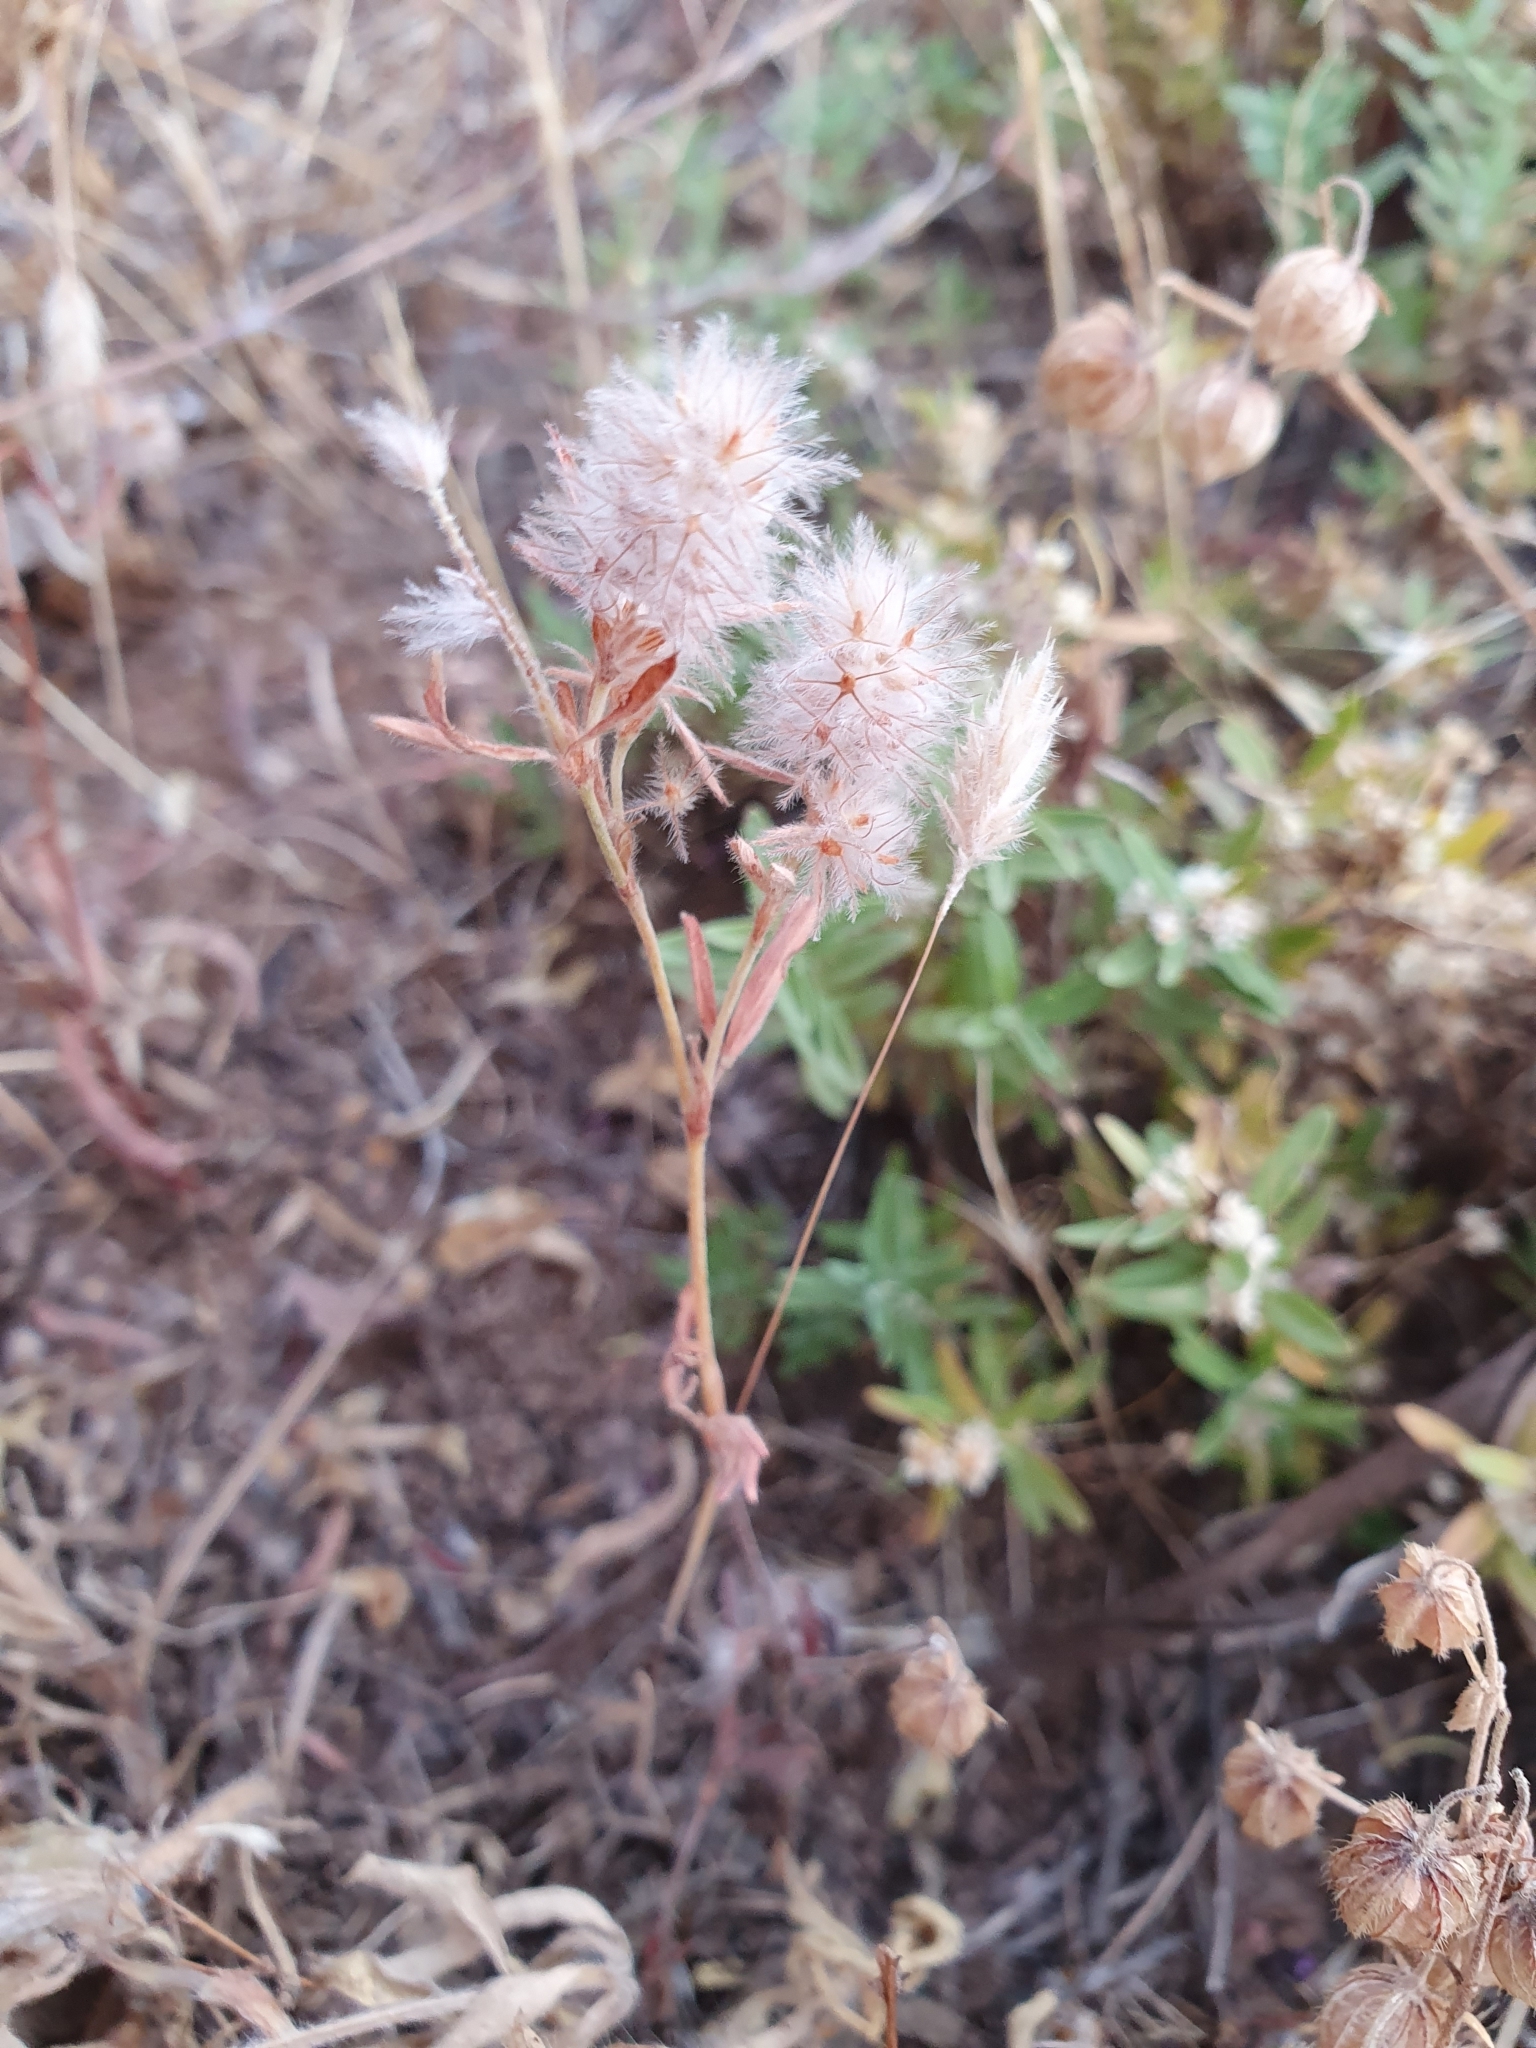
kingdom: Plantae
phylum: Tracheophyta
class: Magnoliopsida
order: Fabales
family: Fabaceae
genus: Trifolium
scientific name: Trifolium arvense
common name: Hare's-foot clover
